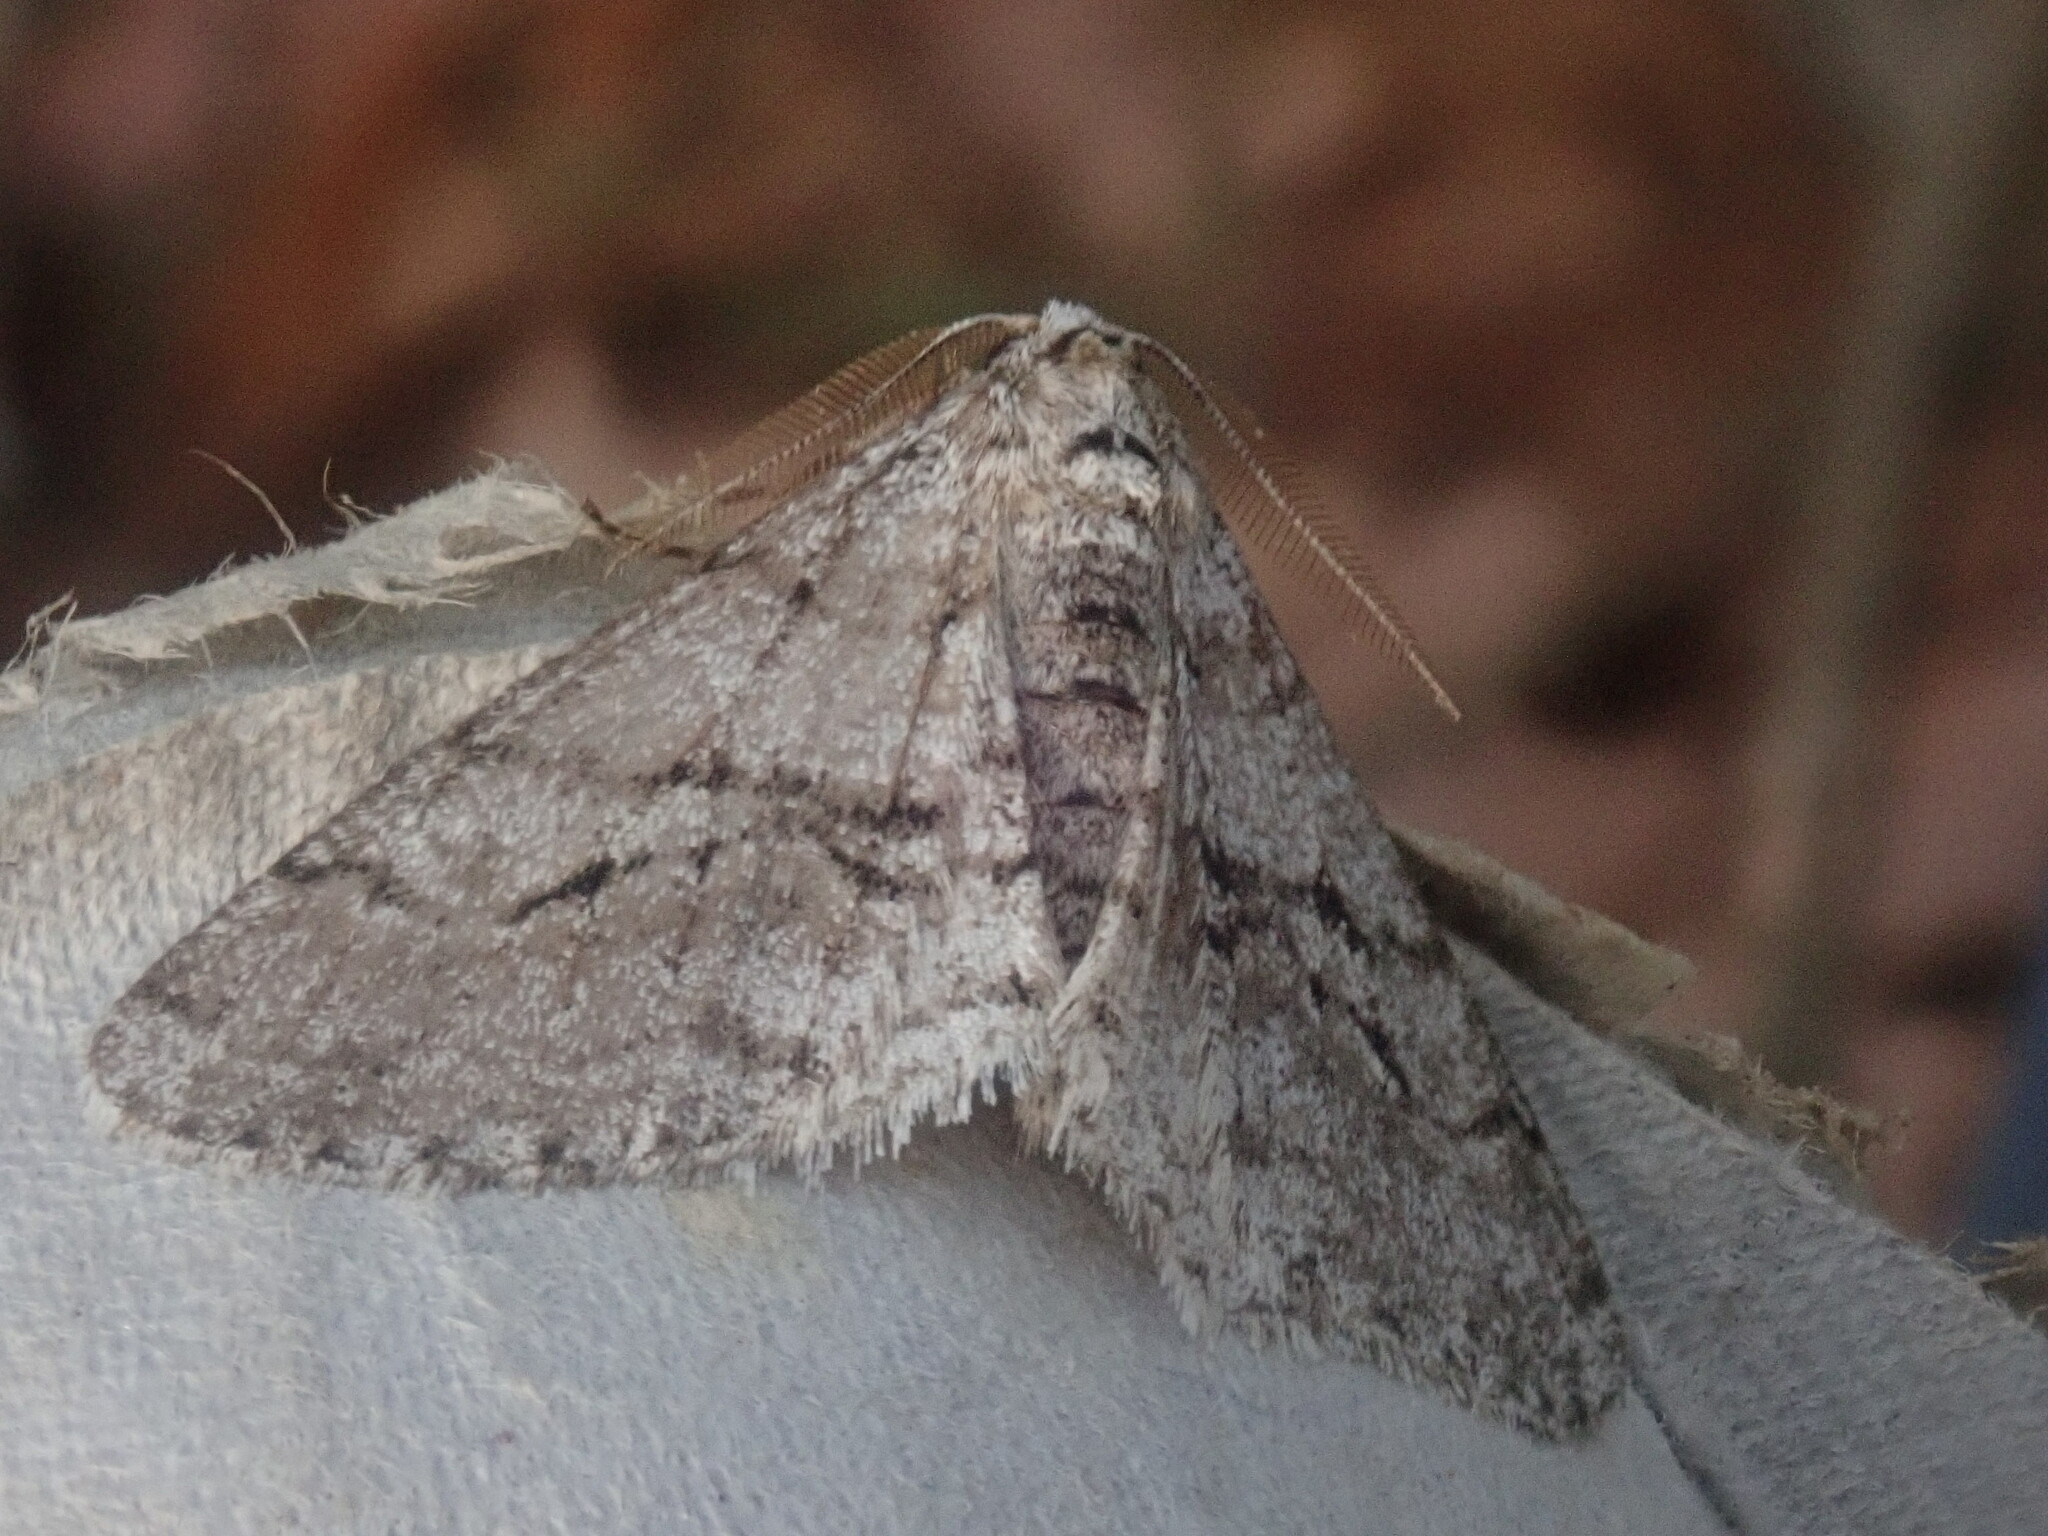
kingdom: Animalia
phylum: Arthropoda
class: Insecta
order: Lepidoptera
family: Geometridae
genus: Phigalia
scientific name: Phigalia titea
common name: Spiny looper
